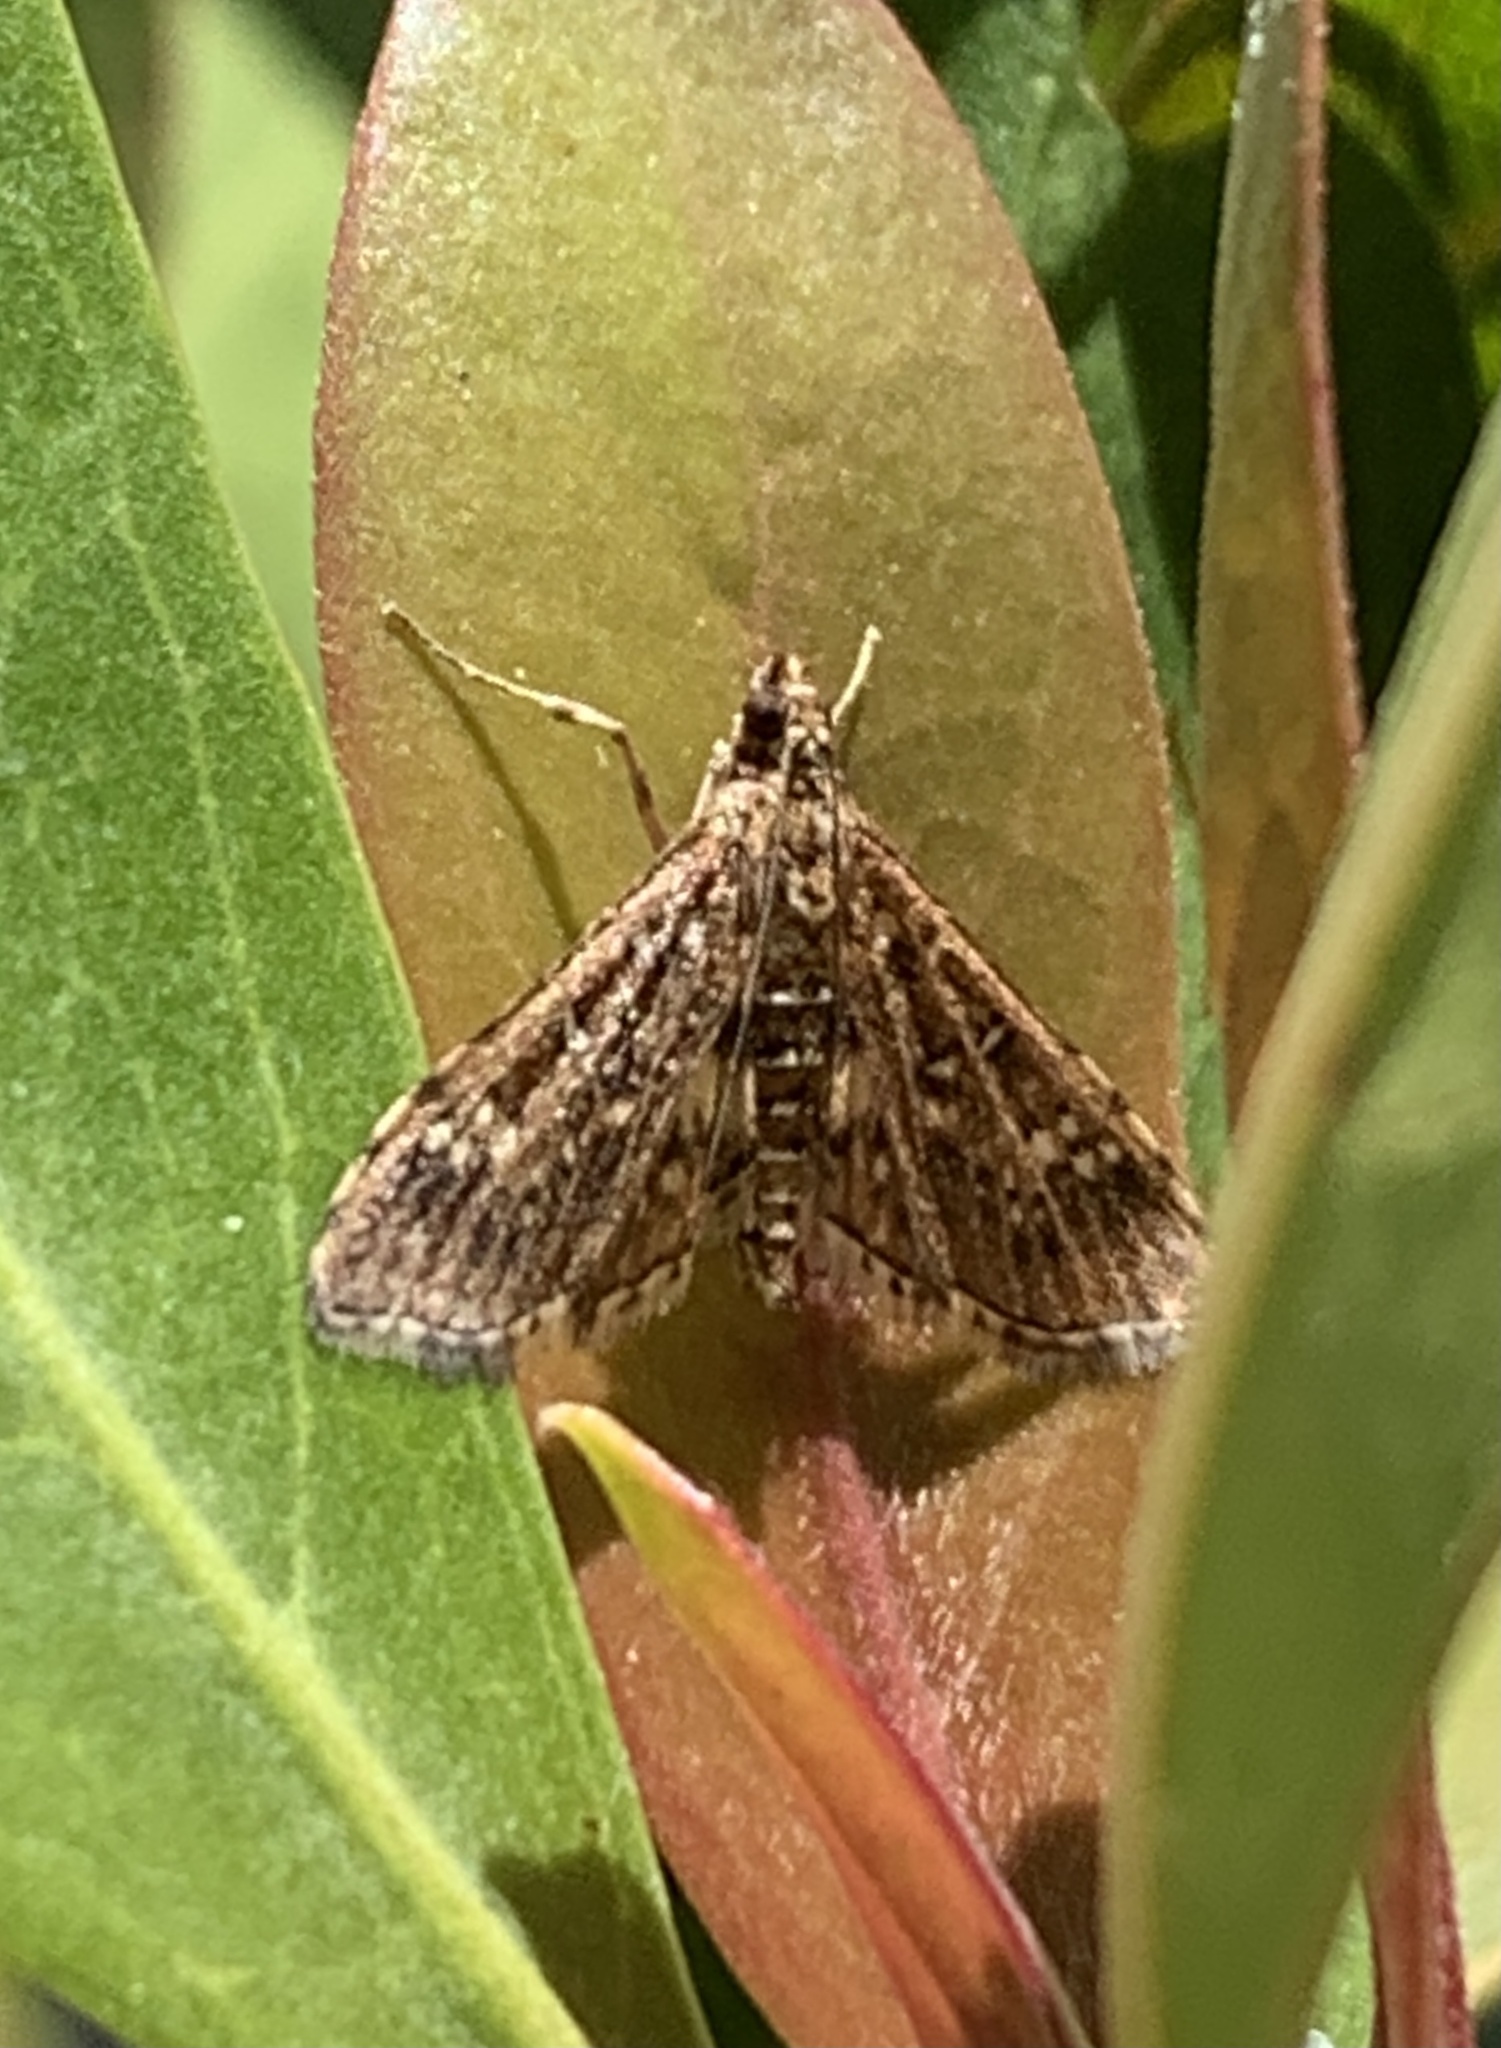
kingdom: Animalia
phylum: Arthropoda
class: Insecta
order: Lepidoptera
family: Crambidae
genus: Samea
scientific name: Samea ecclesialis
